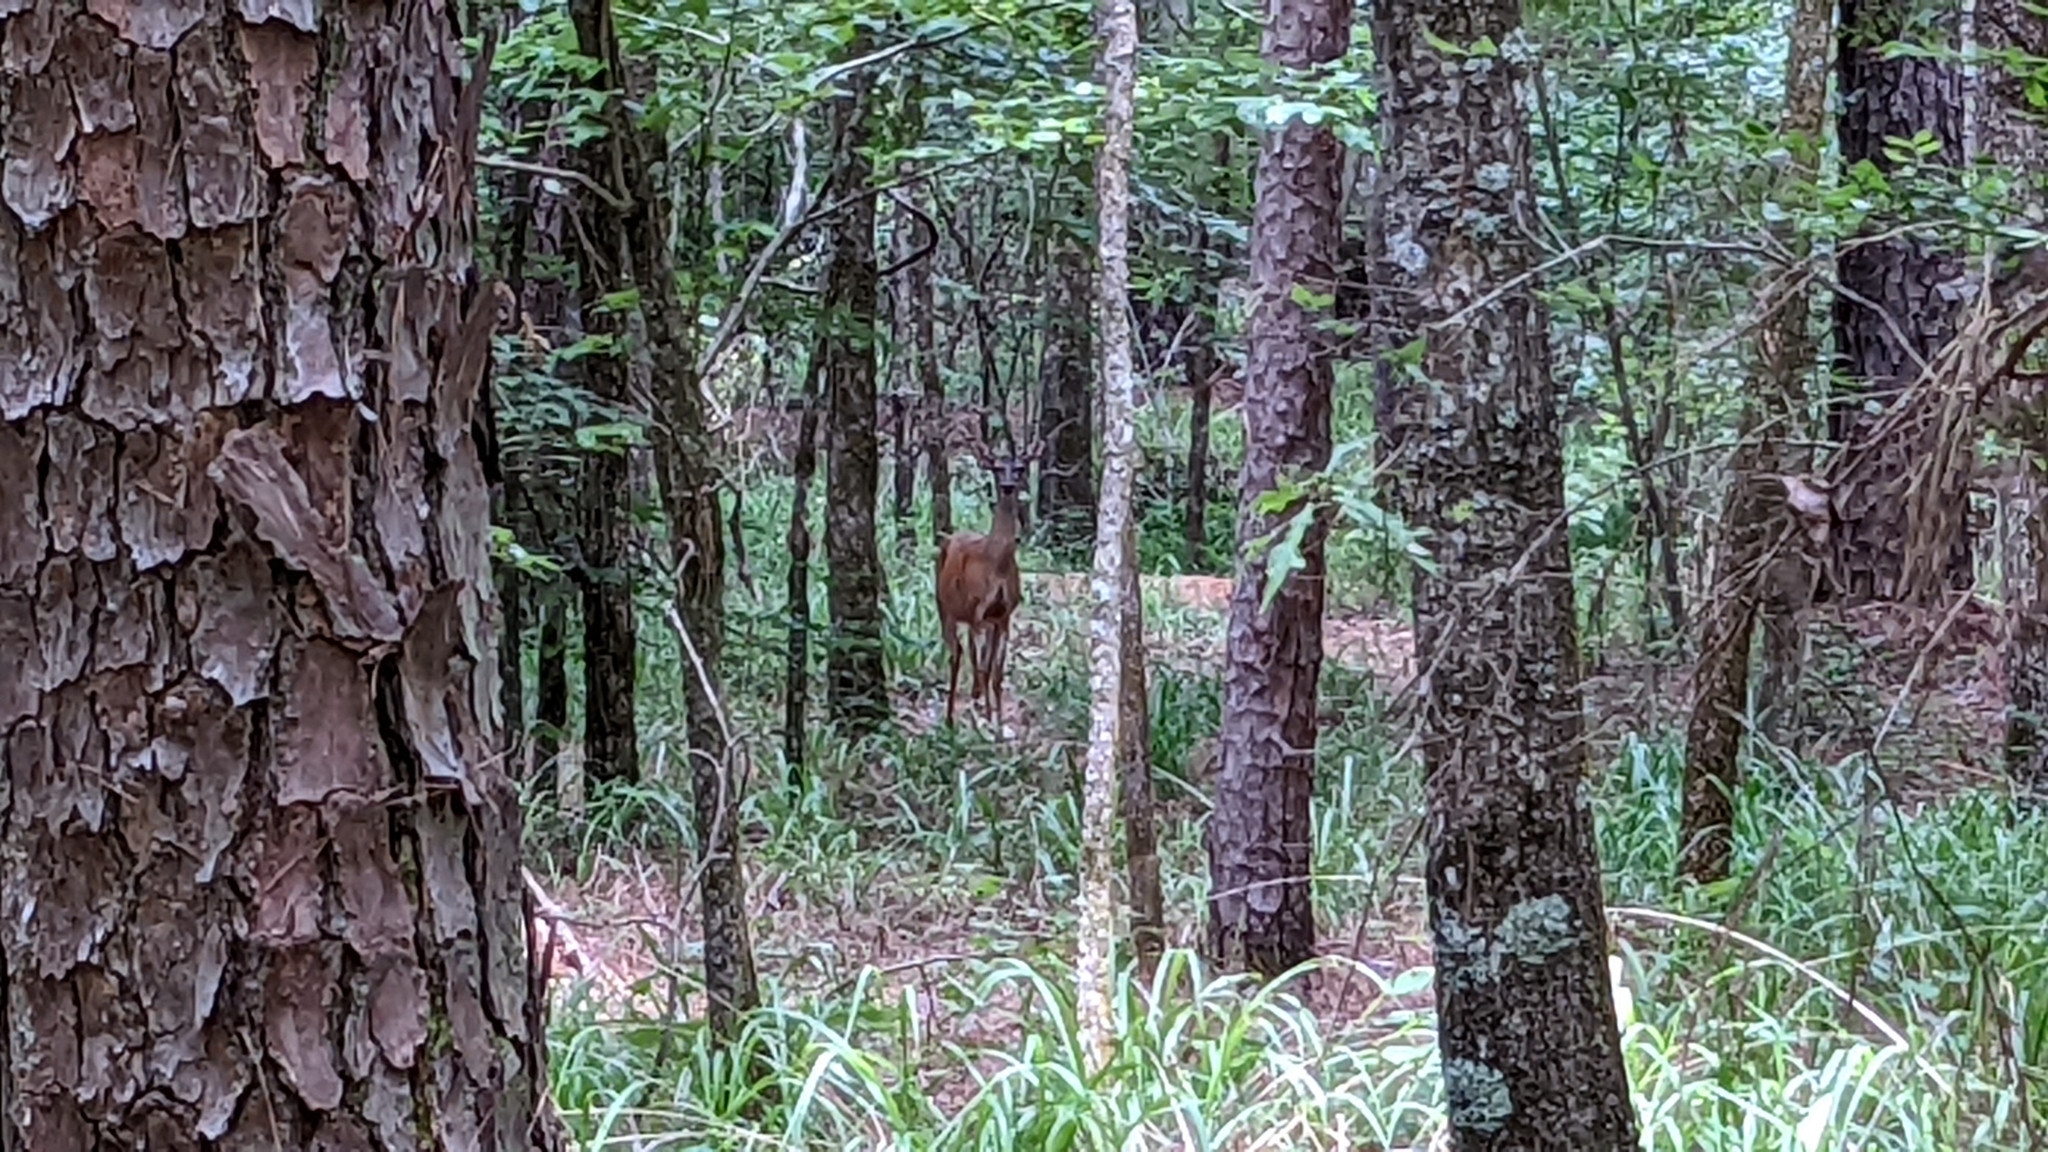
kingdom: Animalia
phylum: Chordata
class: Mammalia
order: Artiodactyla
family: Cervidae
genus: Odocoileus
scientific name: Odocoileus virginianus
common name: White-tailed deer
